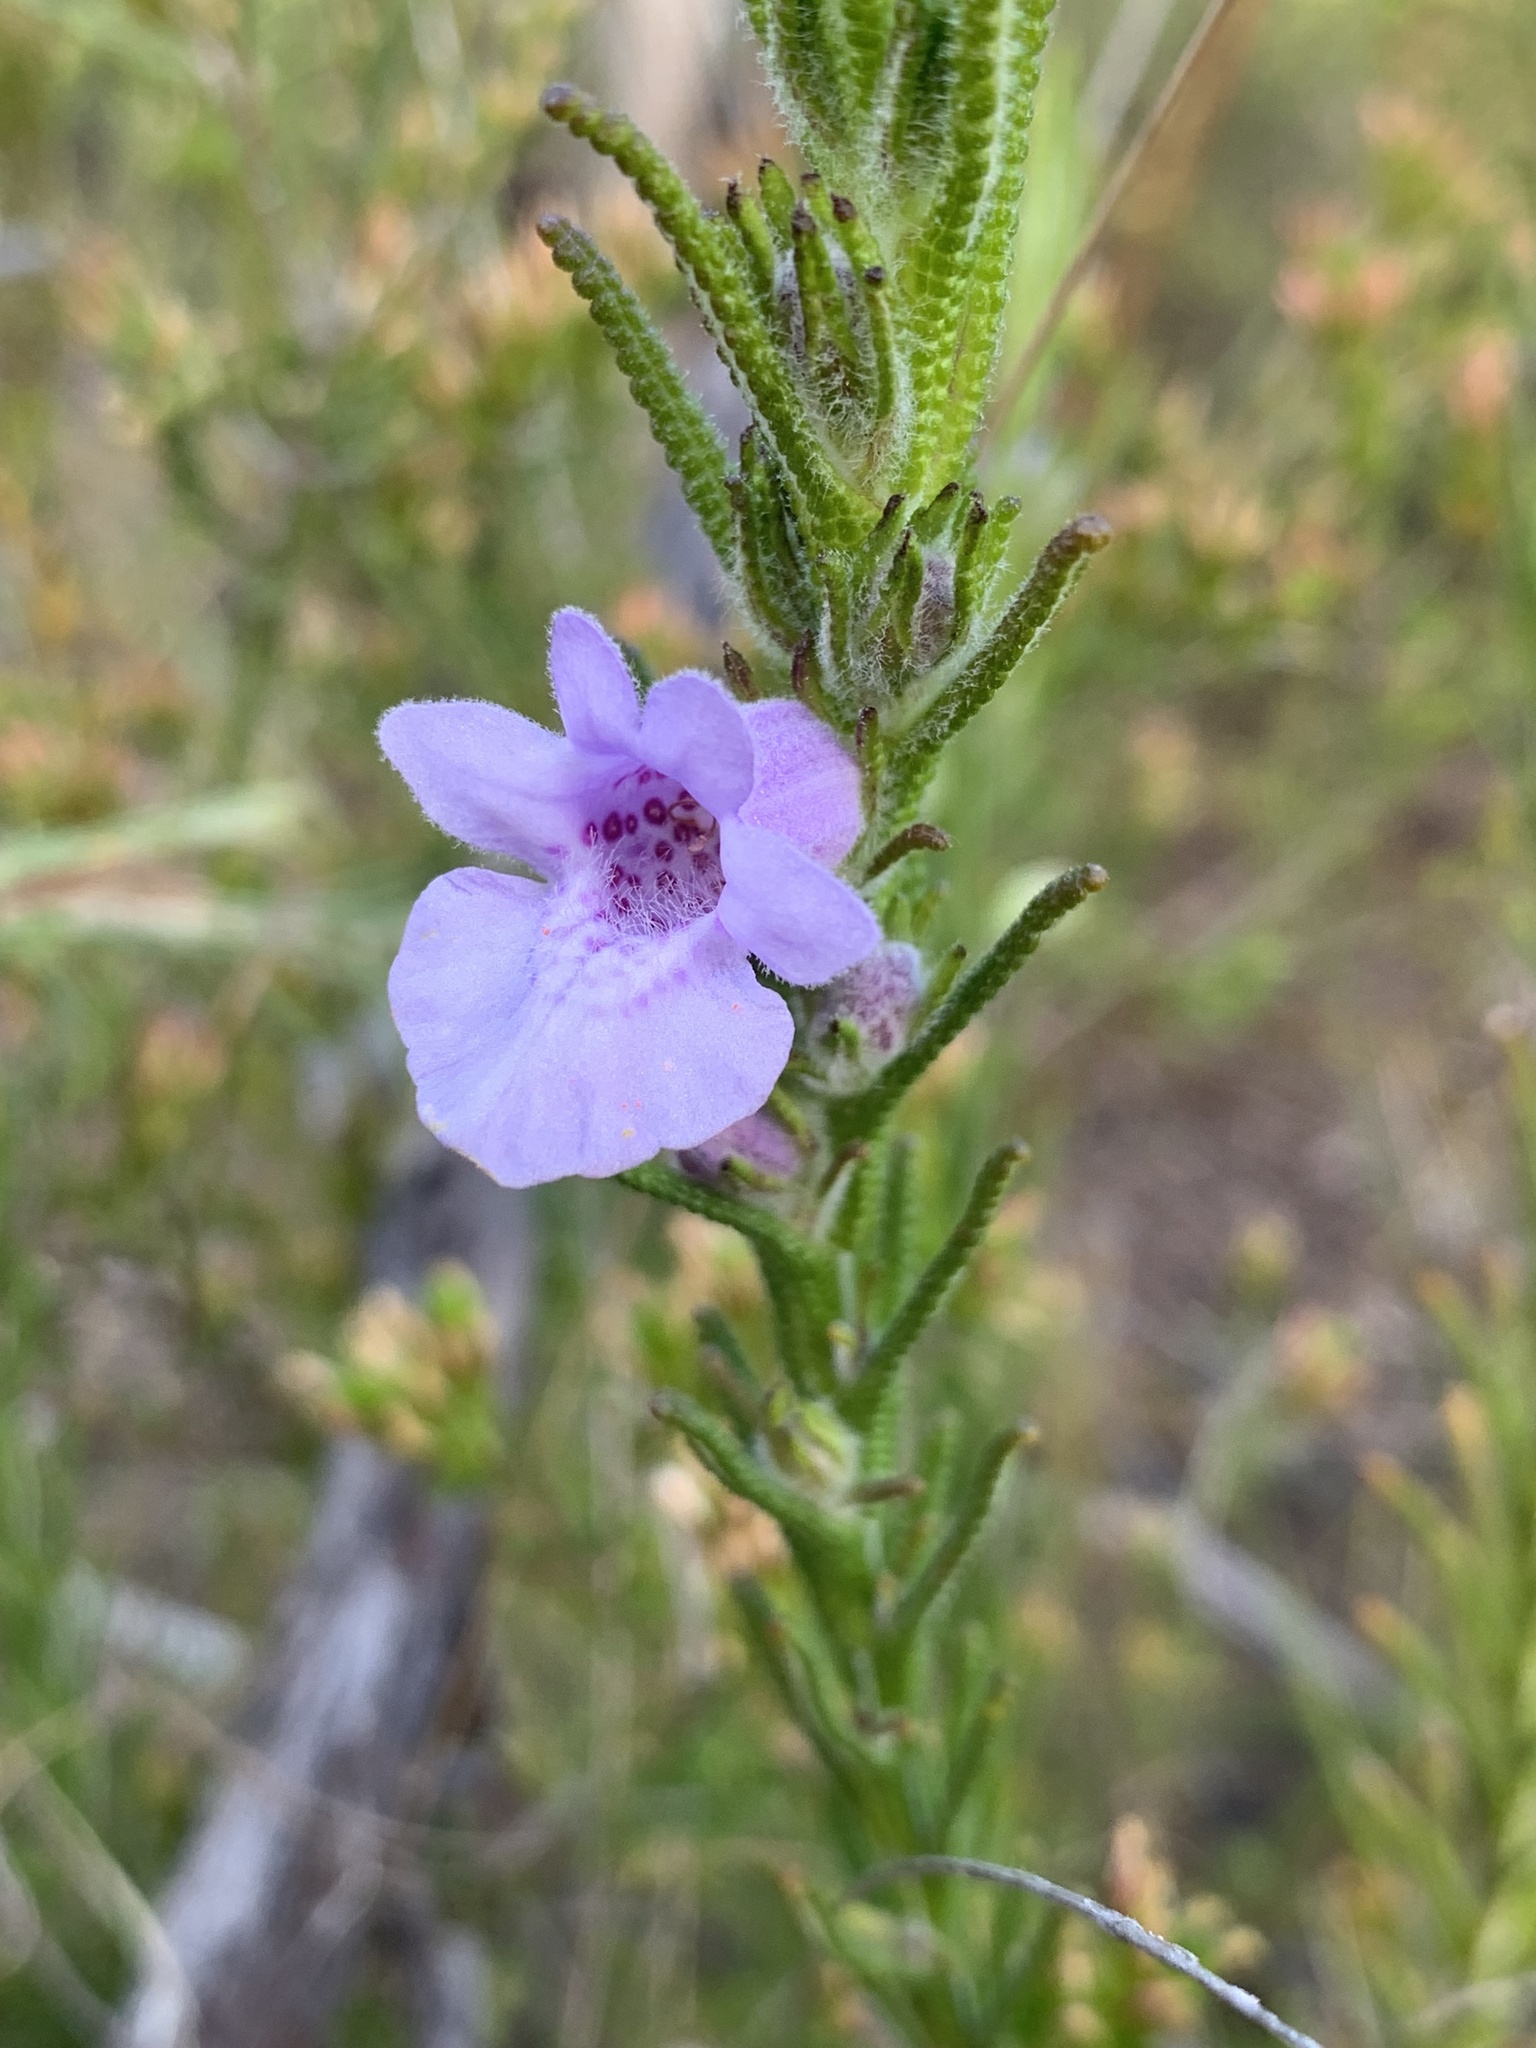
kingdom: Plantae
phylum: Tracheophyta
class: Magnoliopsida
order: Lamiales
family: Lamiaceae
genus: Chloanthes
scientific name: Chloanthes parviflora
